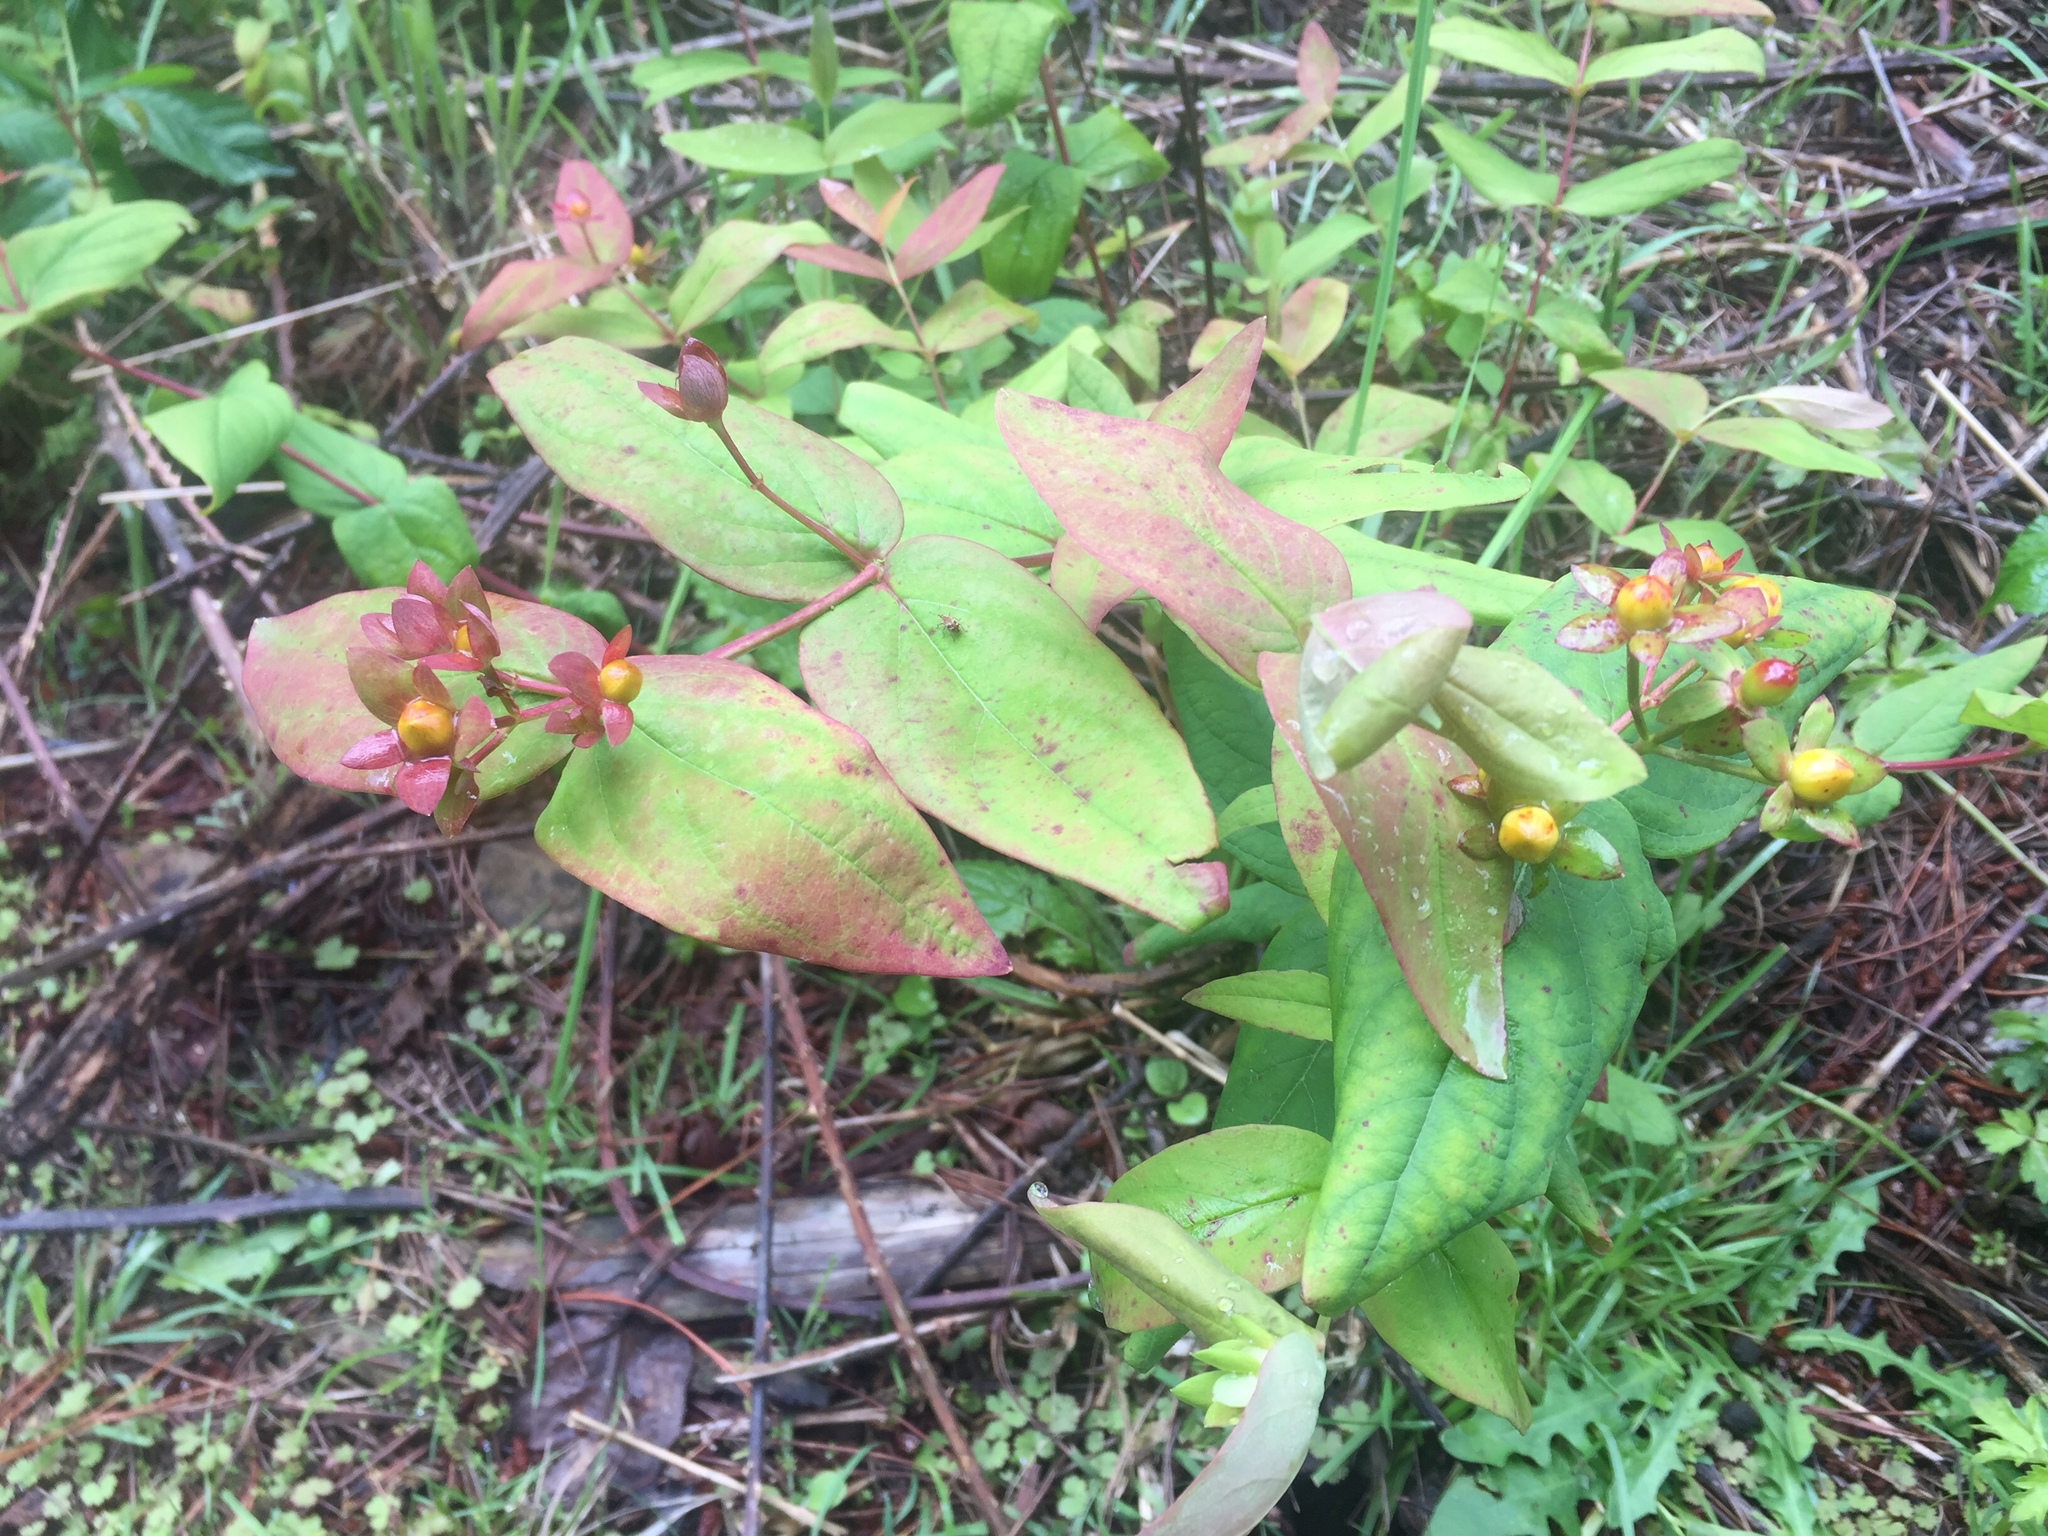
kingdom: Plantae
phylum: Tracheophyta
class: Magnoliopsida
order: Malpighiales
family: Hypericaceae
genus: Hypericum
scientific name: Hypericum androsaemum
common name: Sweet-amber
